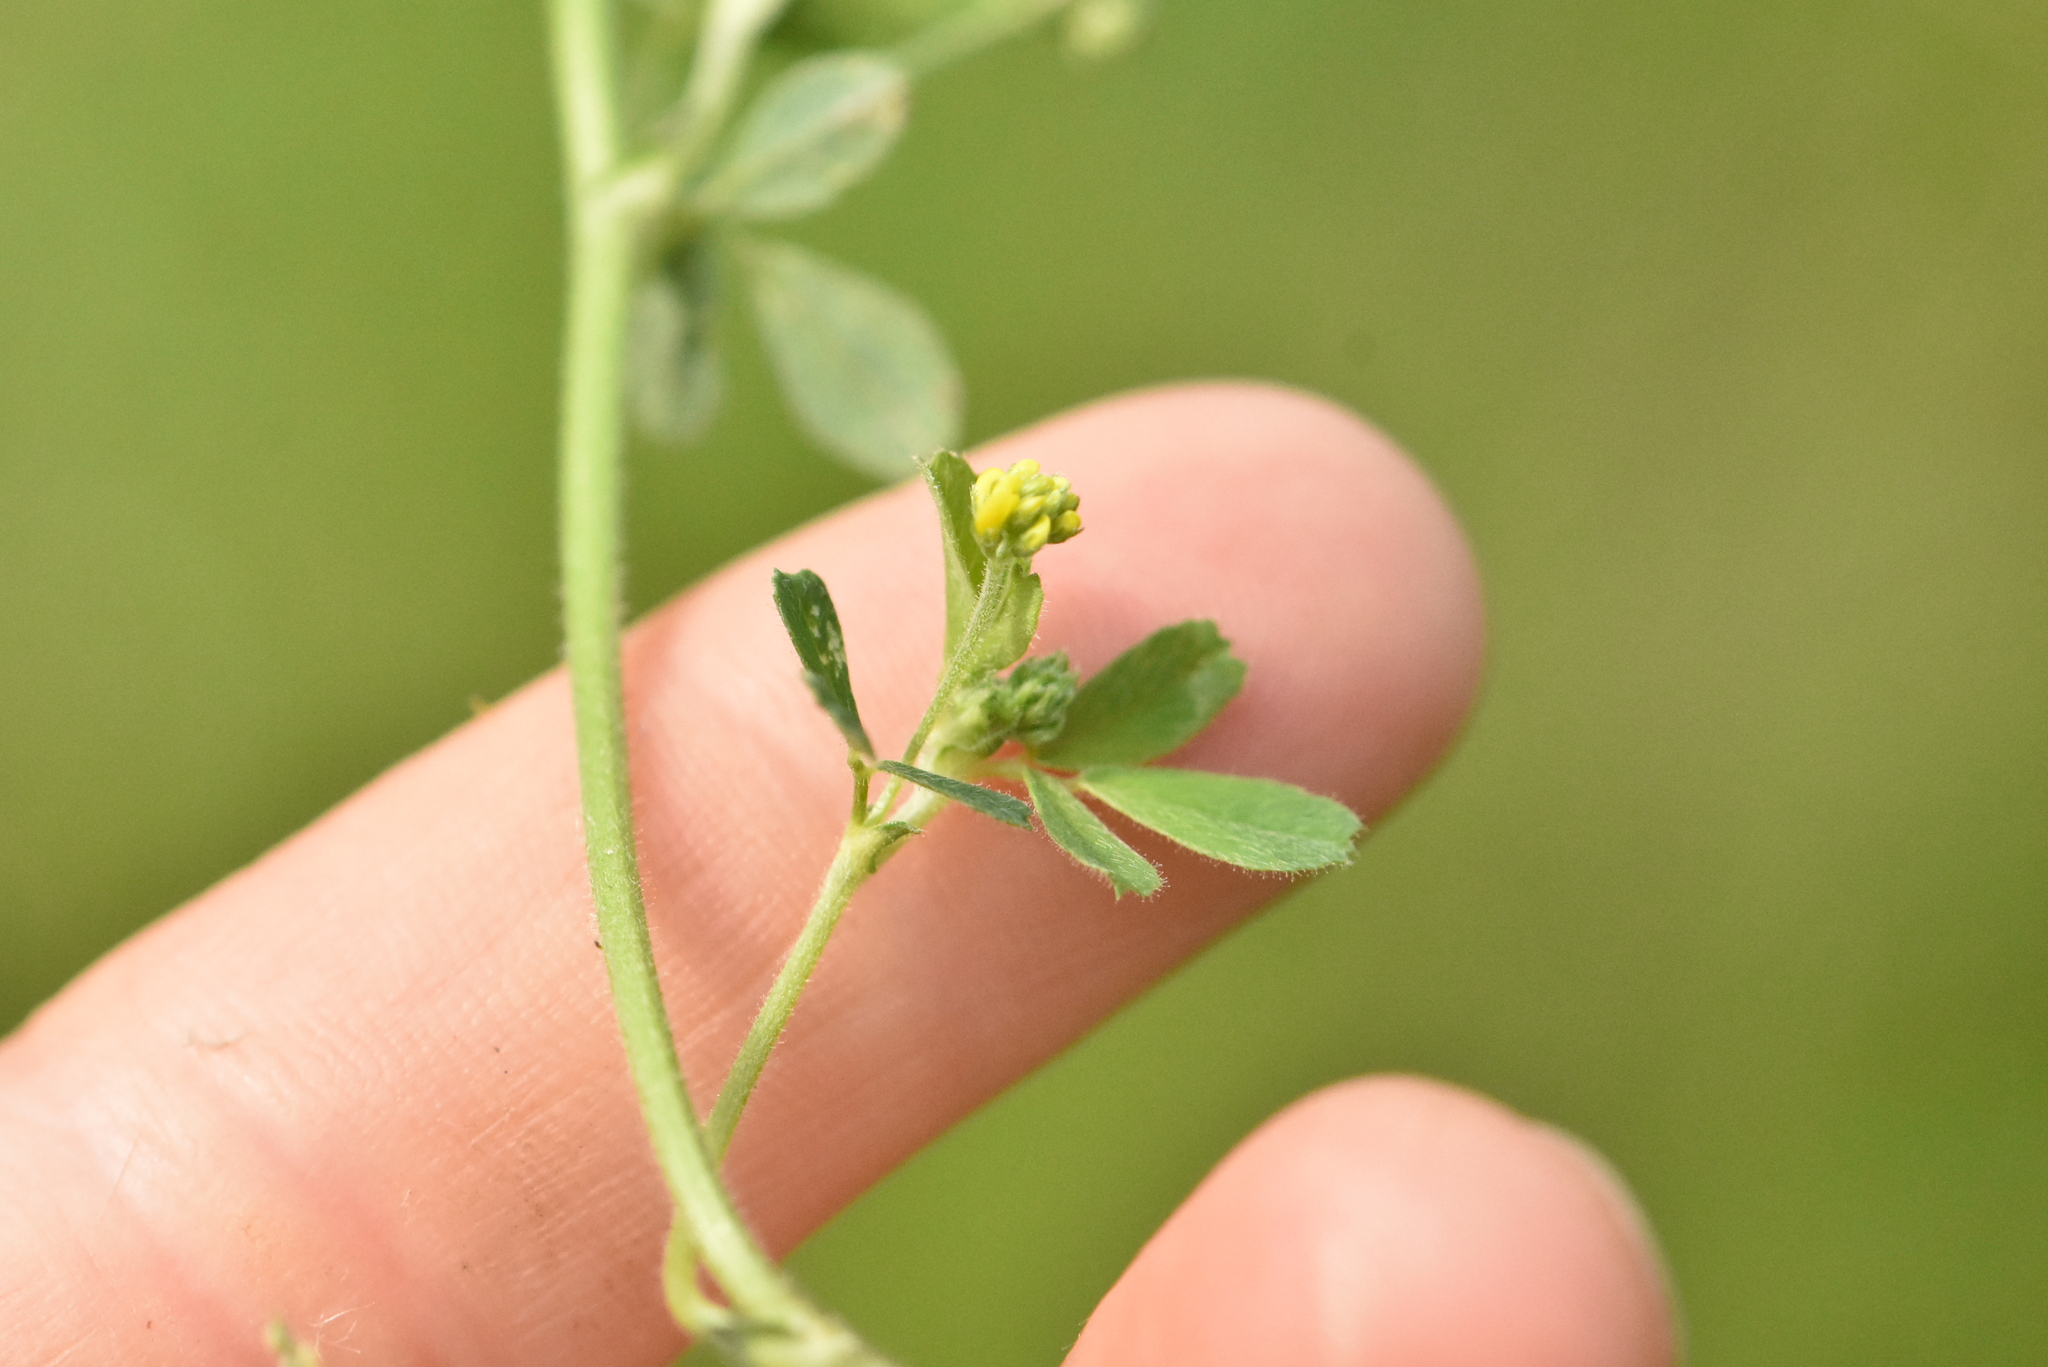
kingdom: Plantae
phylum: Tracheophyta
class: Magnoliopsida
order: Fabales
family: Fabaceae
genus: Medicago
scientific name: Medicago lupulina
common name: Black medick
